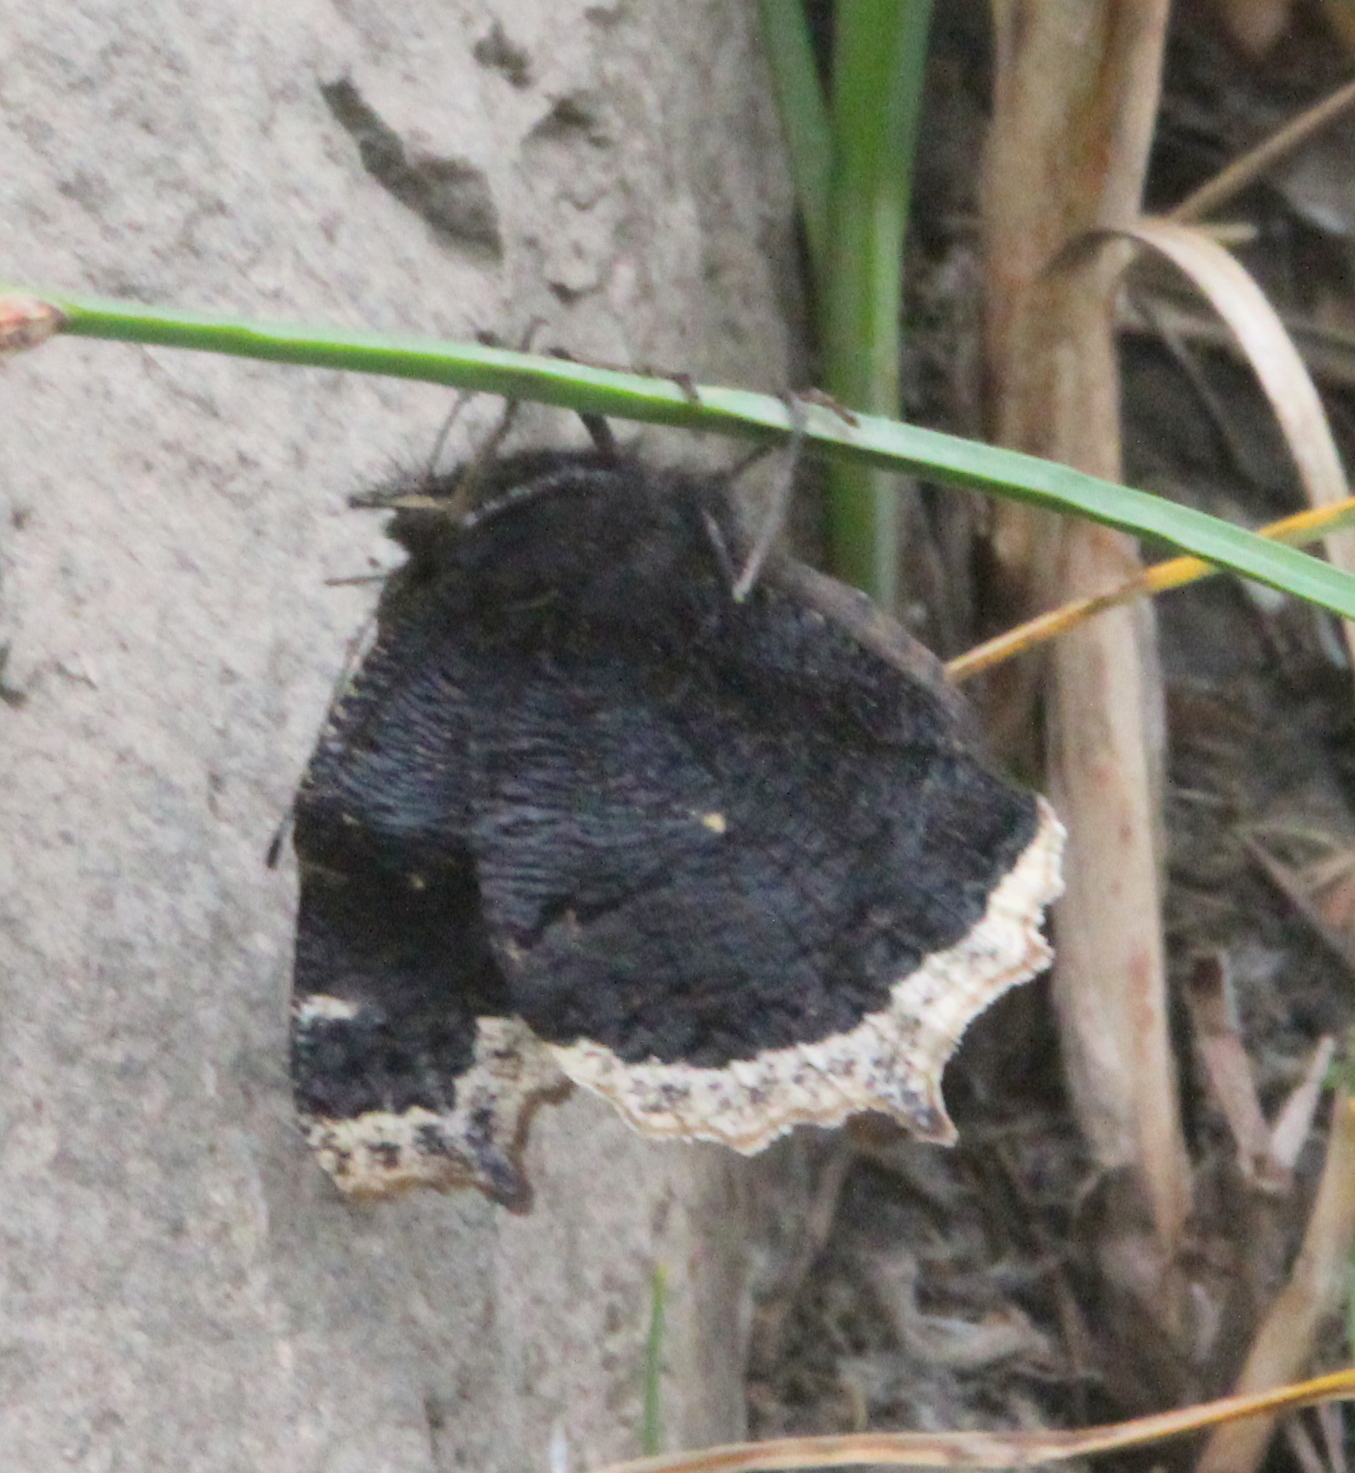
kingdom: Animalia
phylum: Arthropoda
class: Insecta
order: Lepidoptera
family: Nymphalidae
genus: Nymphalis
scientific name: Nymphalis antiopa
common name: Camberwell beauty
